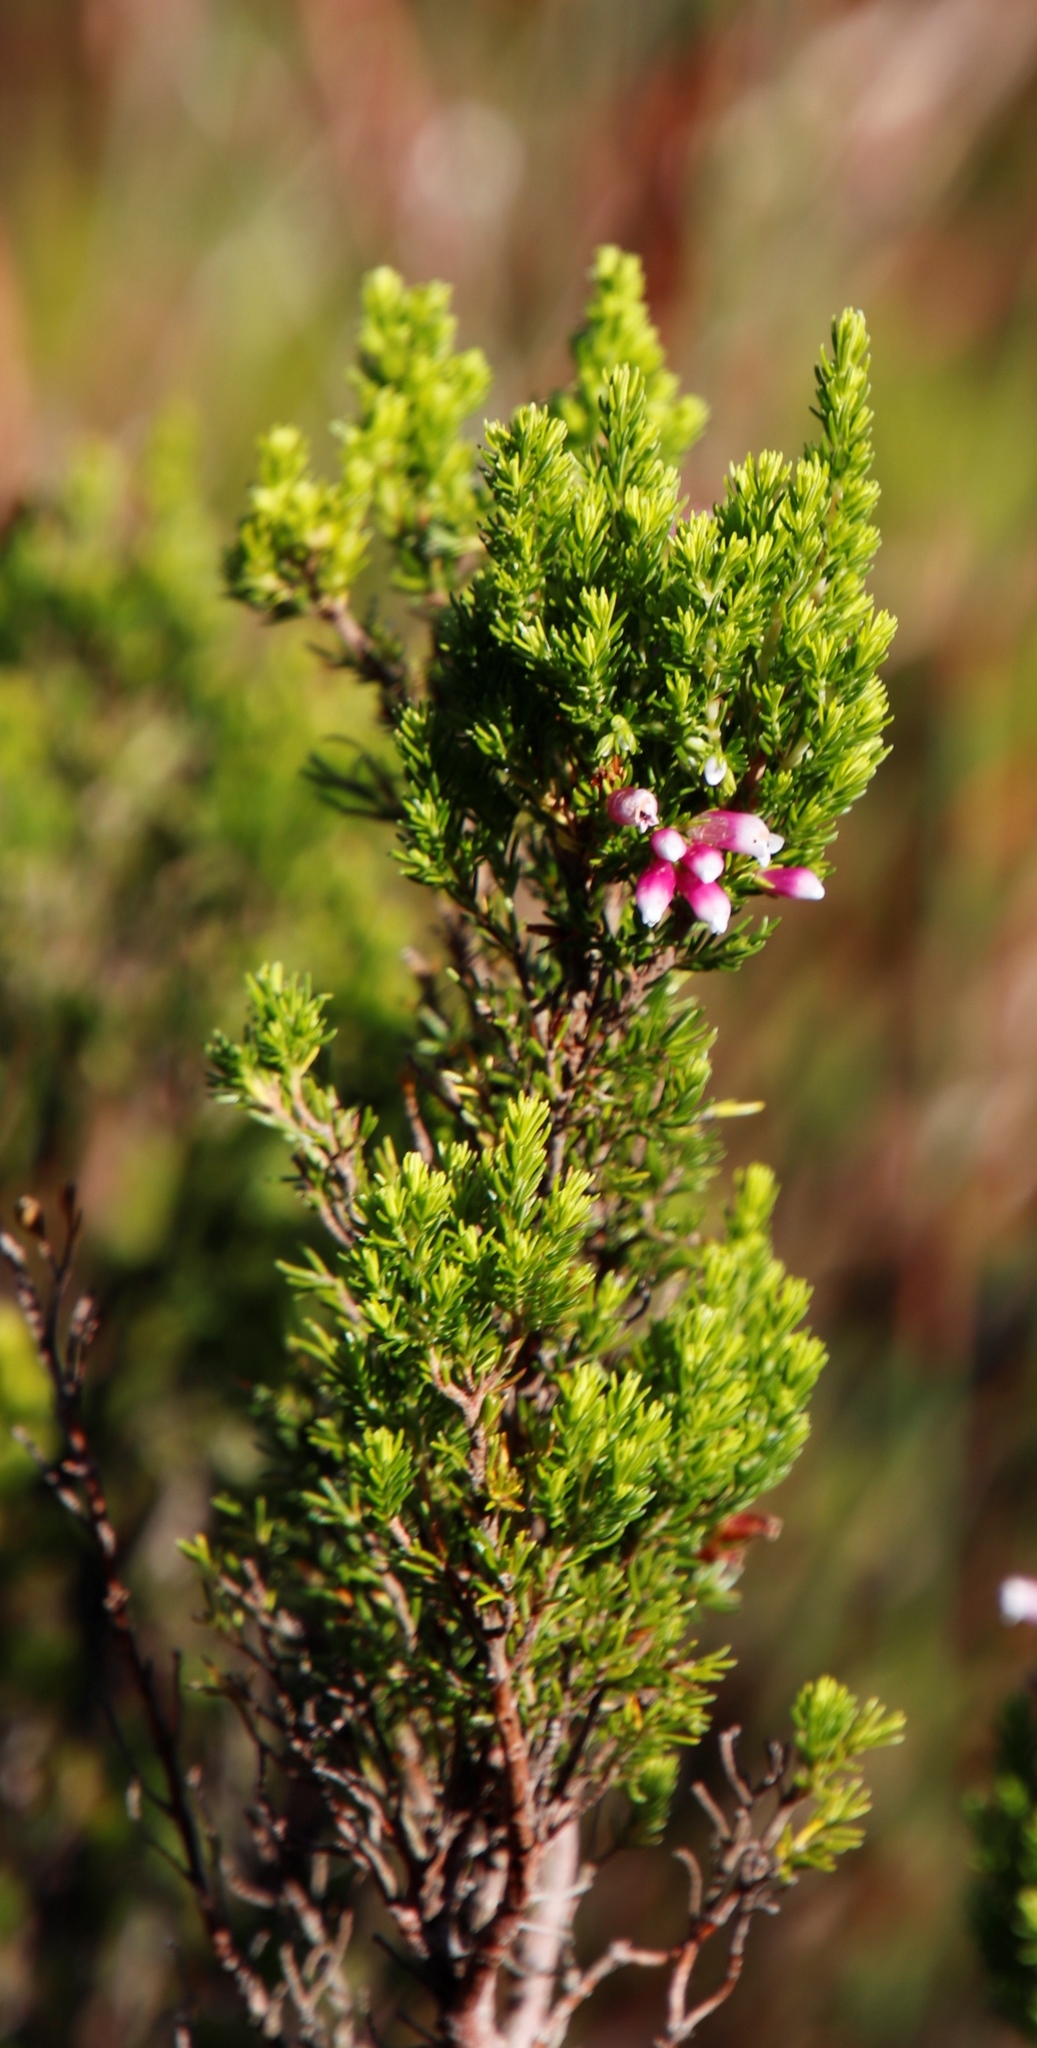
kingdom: Plantae
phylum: Tracheophyta
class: Magnoliopsida
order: Ericales
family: Ericaceae
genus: Erica
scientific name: Erica sitiens
